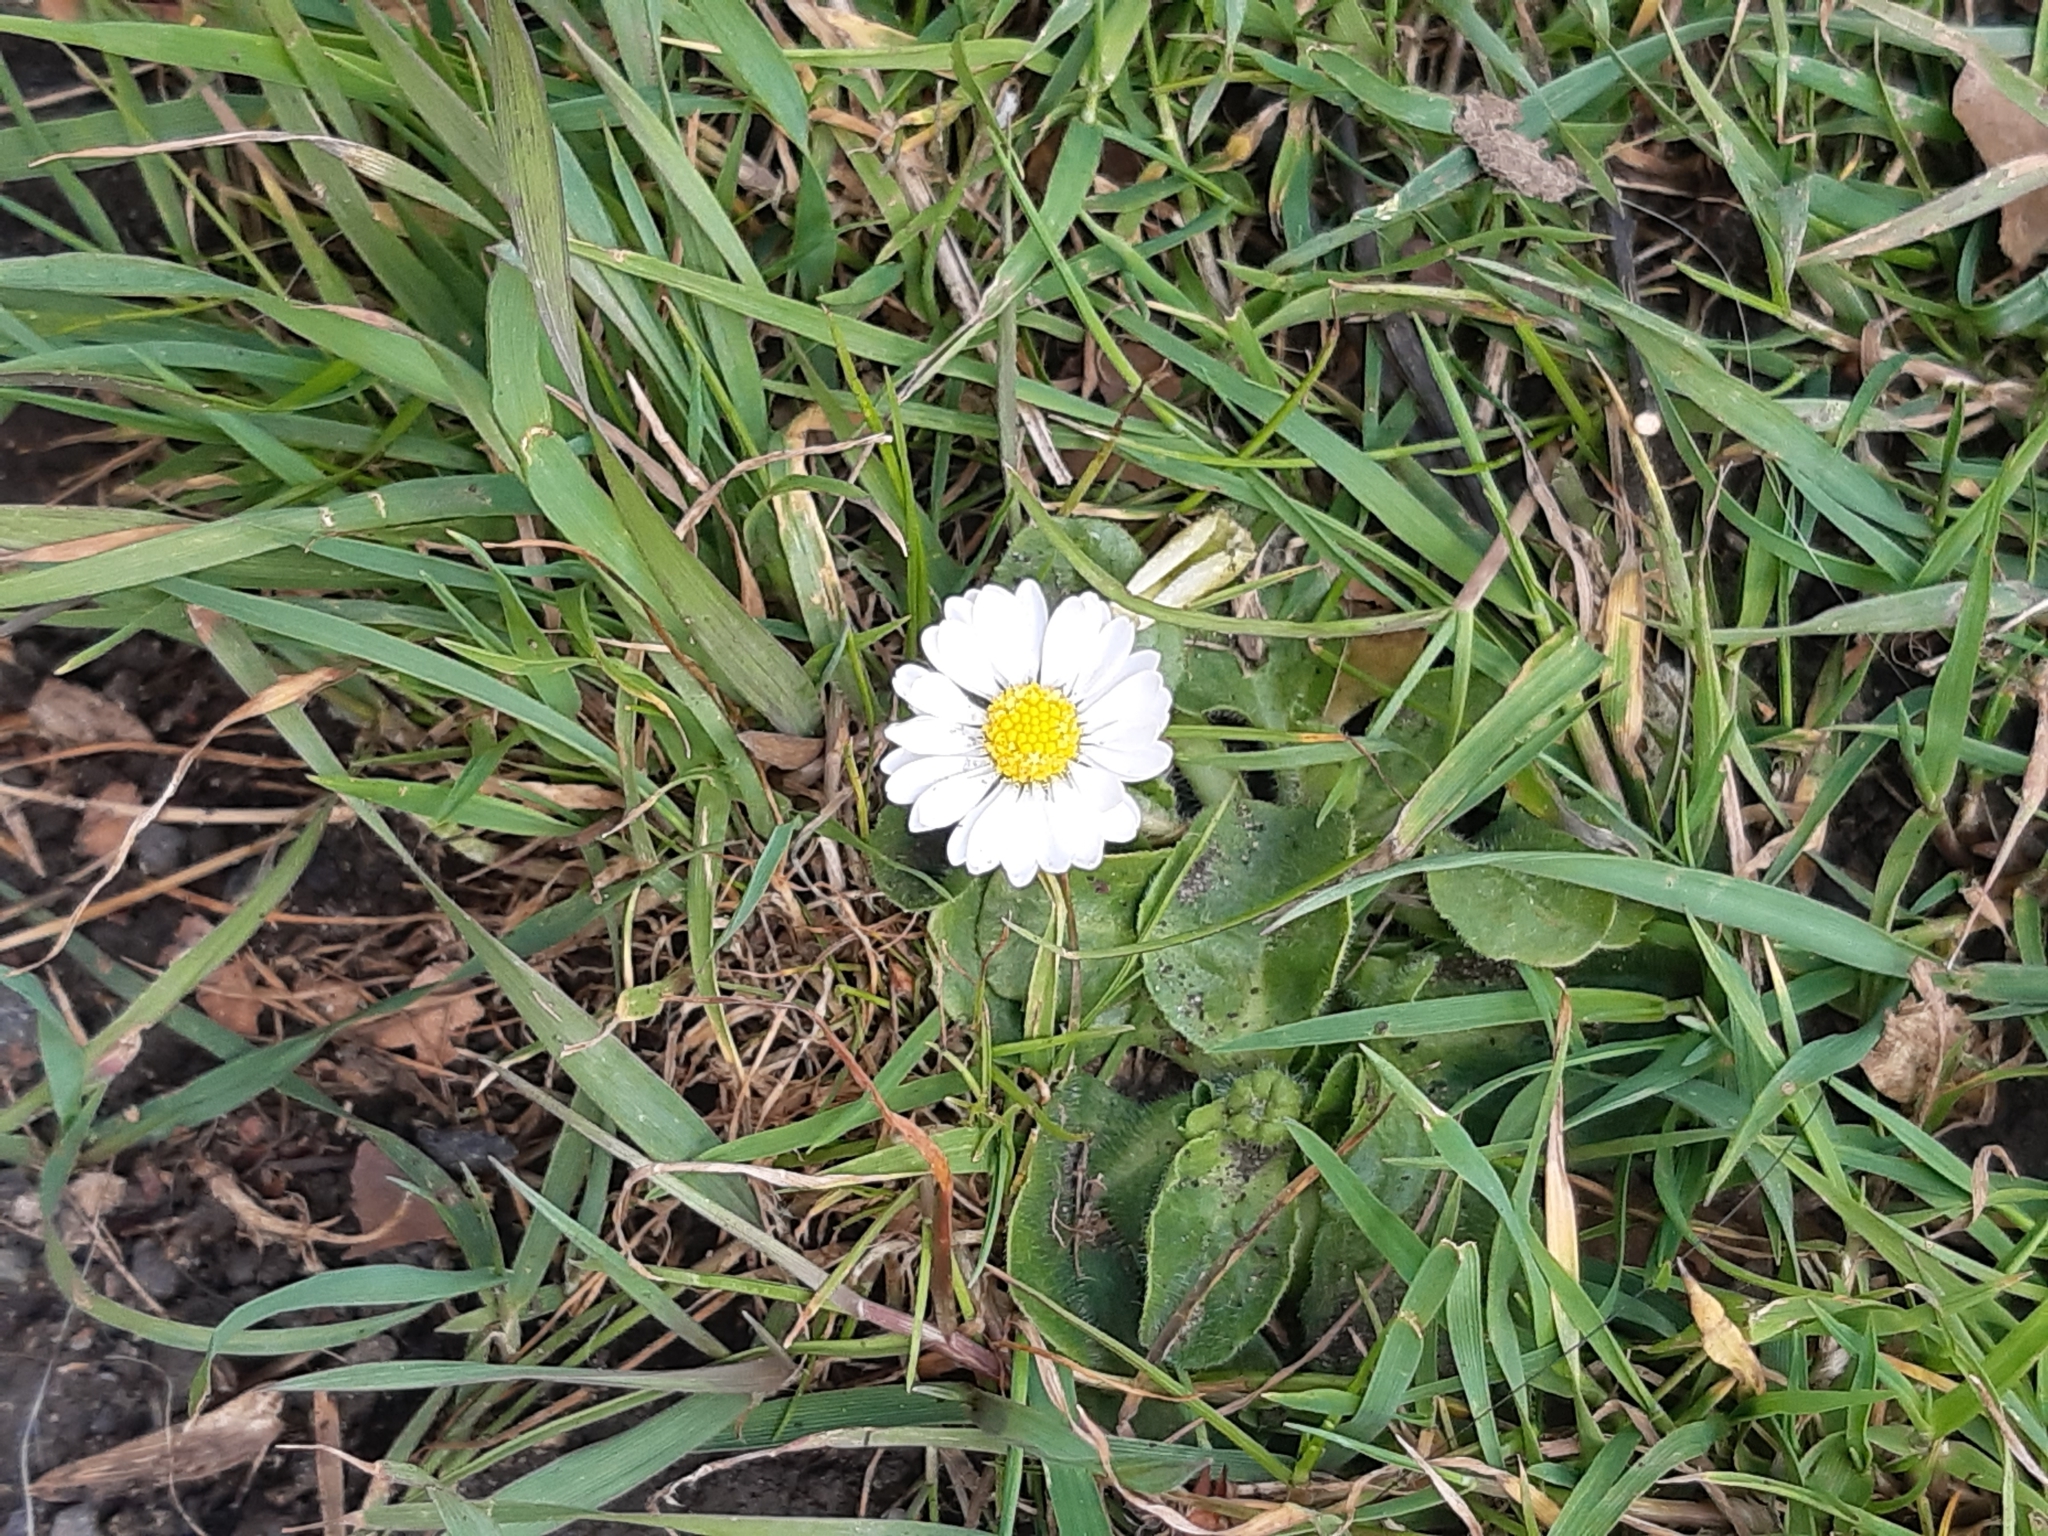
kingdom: Plantae
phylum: Tracheophyta
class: Magnoliopsida
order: Asterales
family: Asteraceae
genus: Bellis
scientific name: Bellis perennis
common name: Lawndaisy
